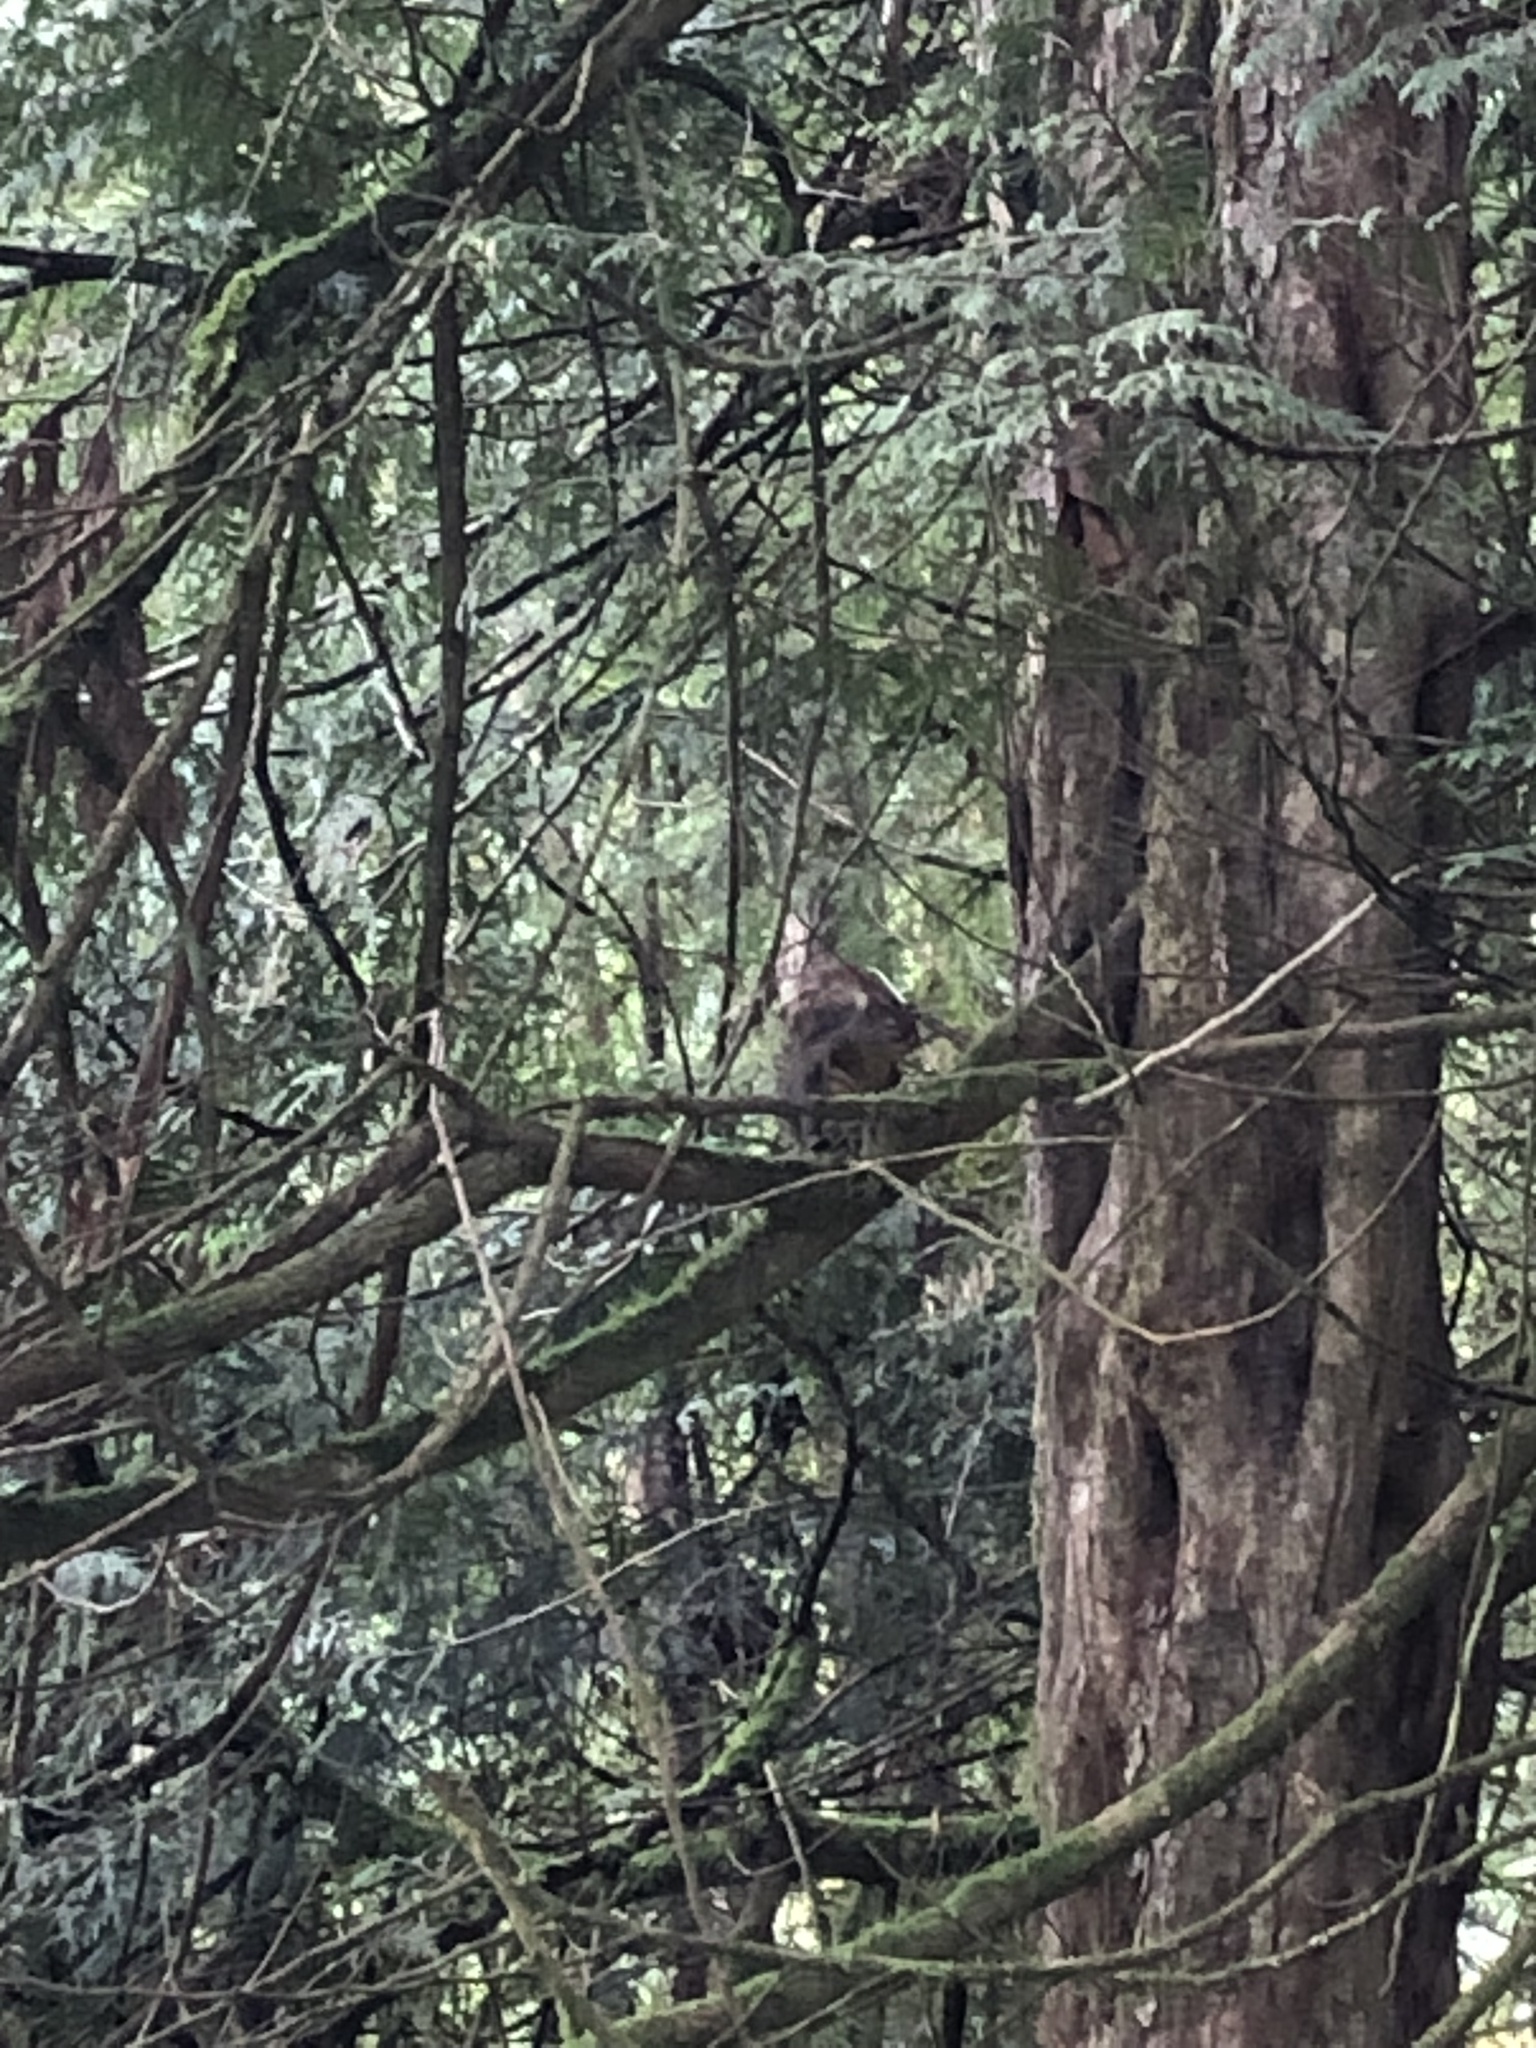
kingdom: Animalia
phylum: Chordata
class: Mammalia
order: Rodentia
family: Sciuridae
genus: Tamiasciurus
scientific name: Tamiasciurus douglasii
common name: Douglas's squirrel
